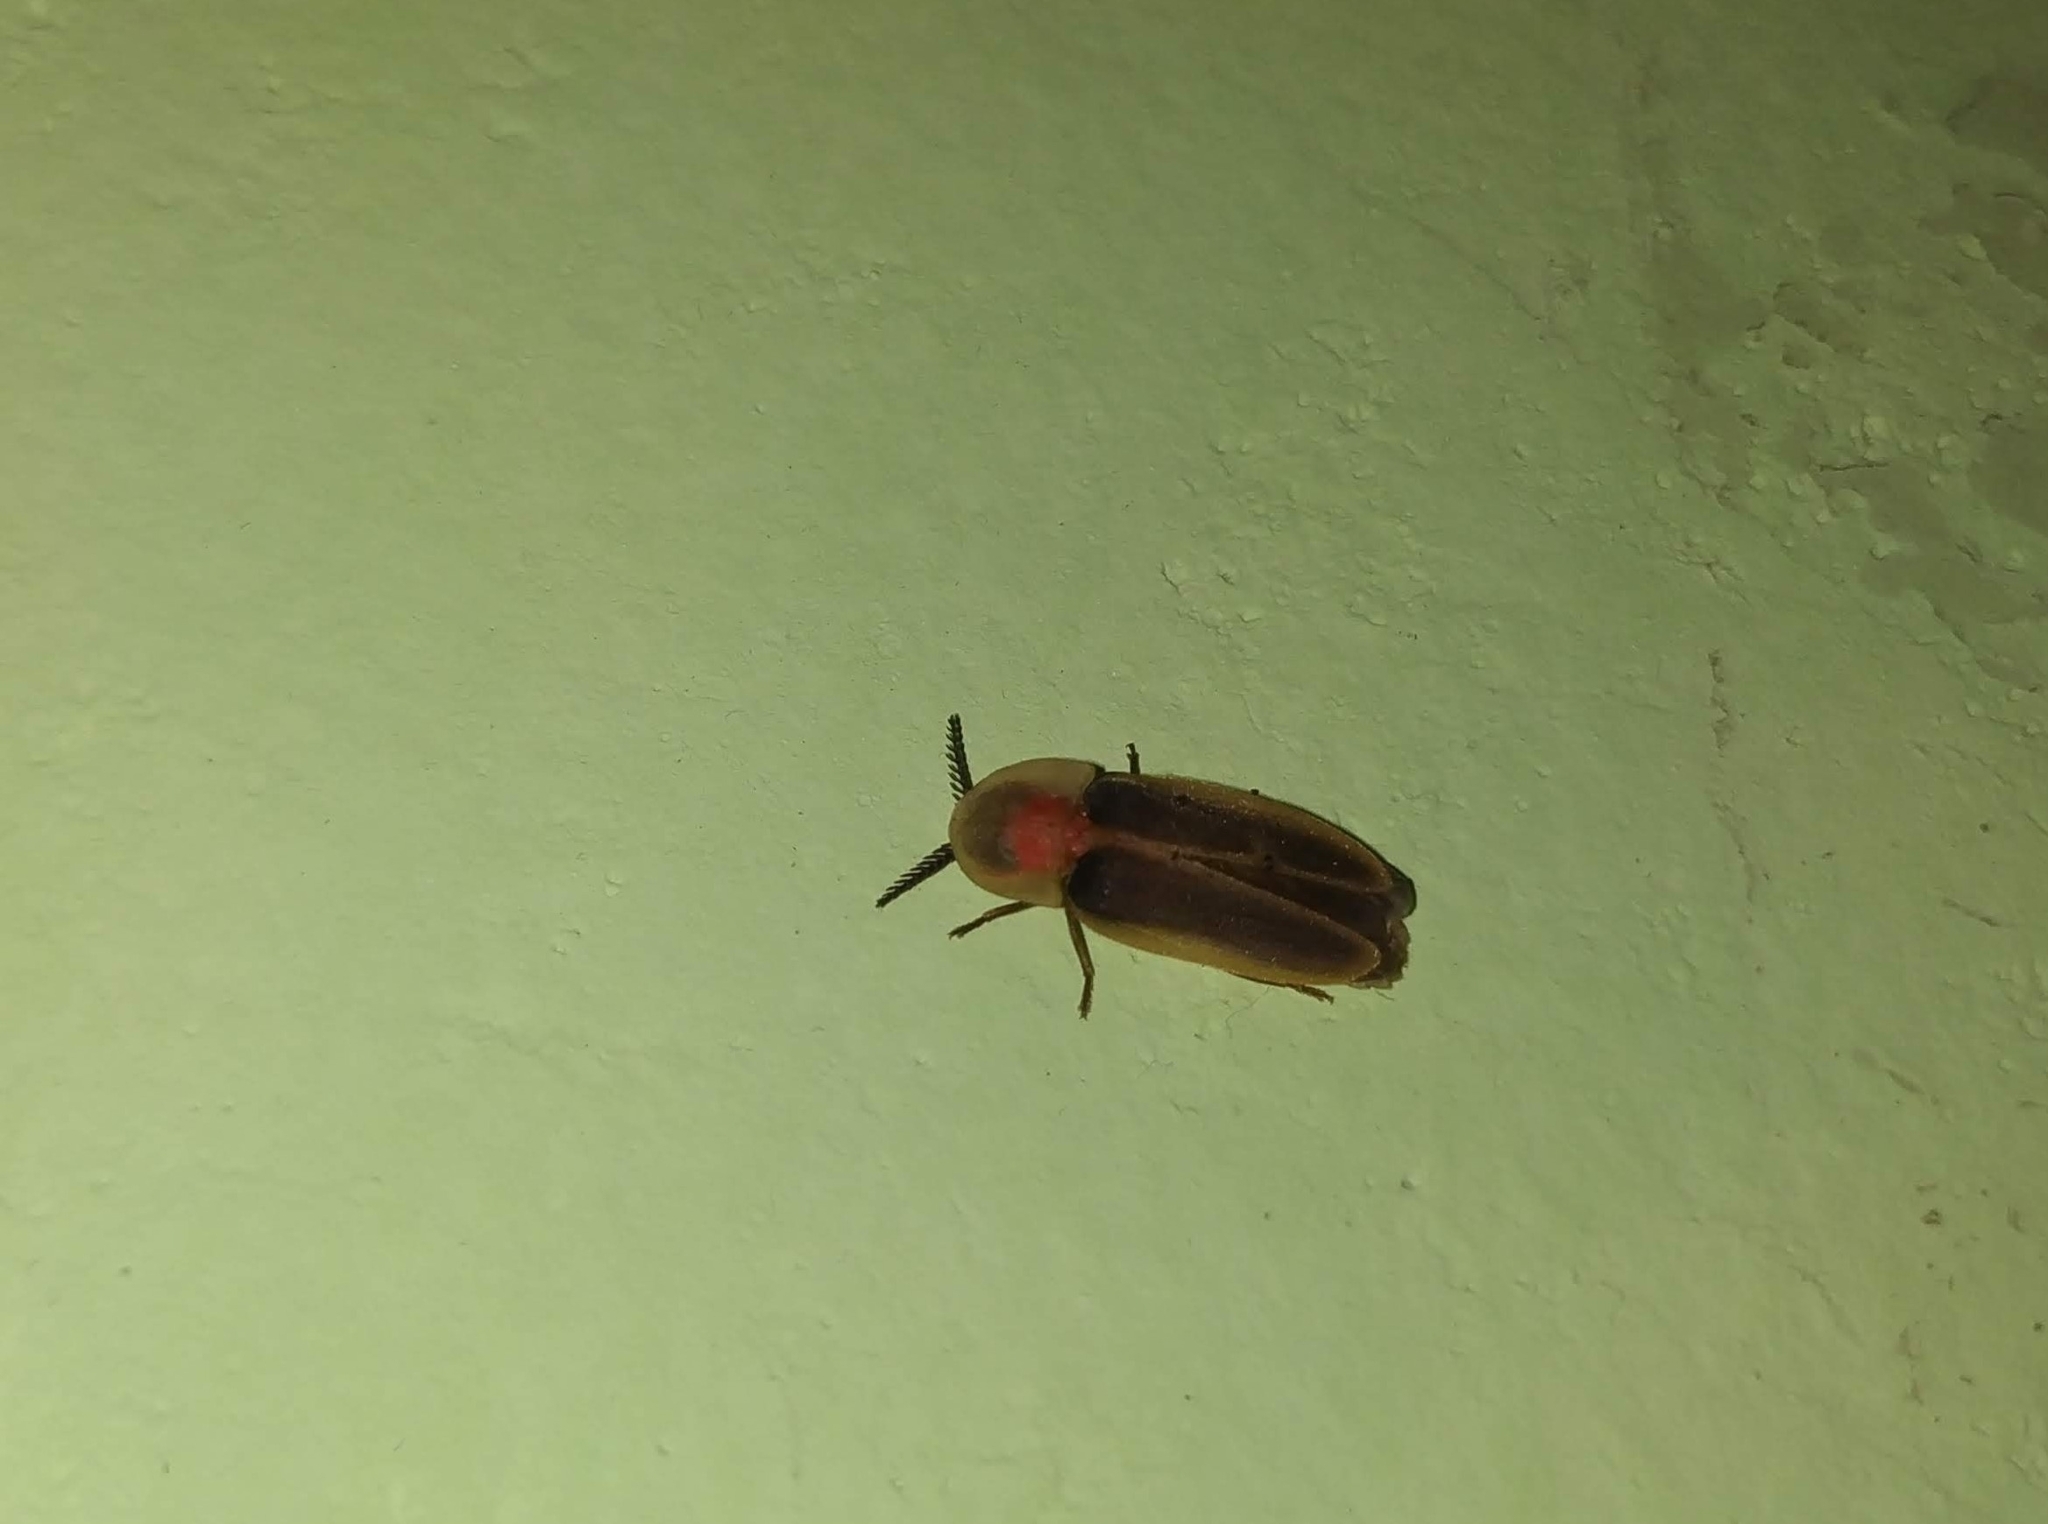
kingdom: Animalia
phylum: Arthropoda
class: Insecta
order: Coleoptera
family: Lampyridae
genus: Pleotomus
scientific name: Pleotomus pallens
